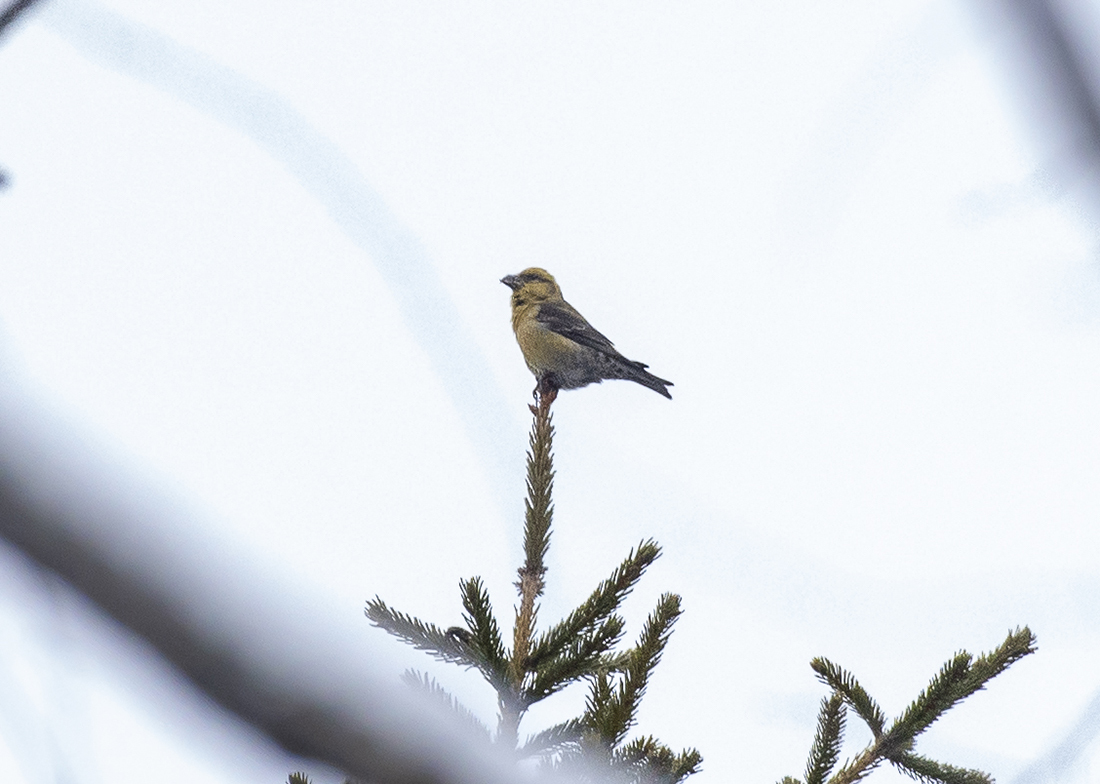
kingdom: Animalia
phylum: Chordata
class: Aves
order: Passeriformes
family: Fringillidae
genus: Loxia
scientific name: Loxia curvirostra
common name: Red crossbill
